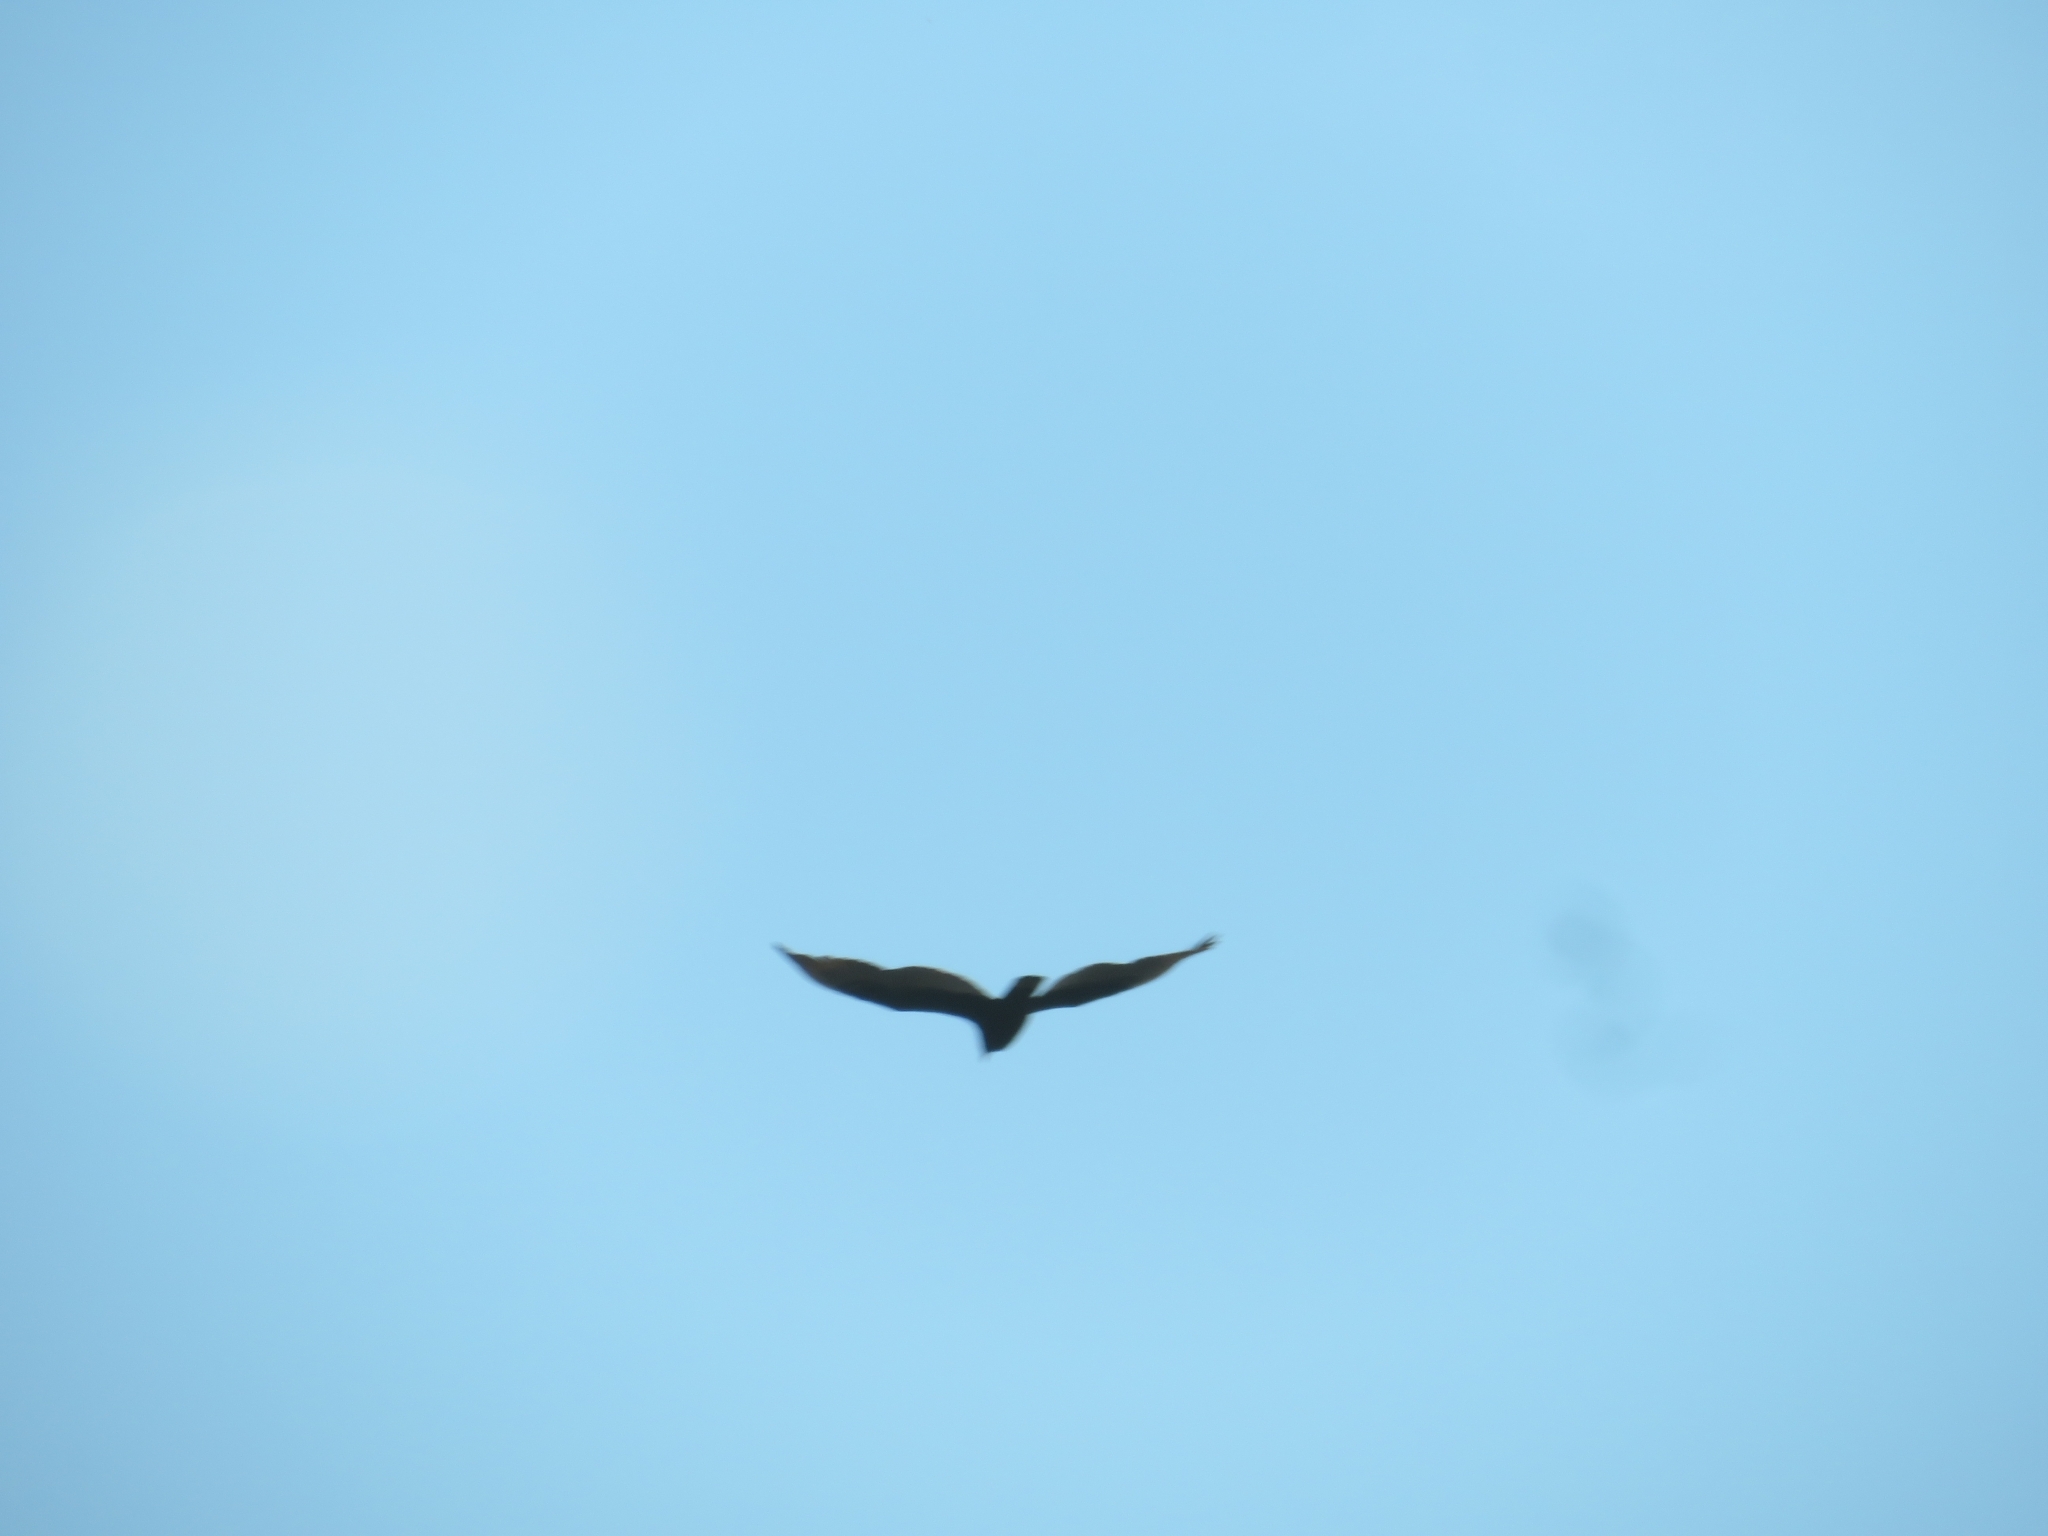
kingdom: Animalia
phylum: Chordata
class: Aves
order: Accipitriformes
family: Cathartidae
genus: Cathartes
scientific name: Cathartes aura
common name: Turkey vulture
